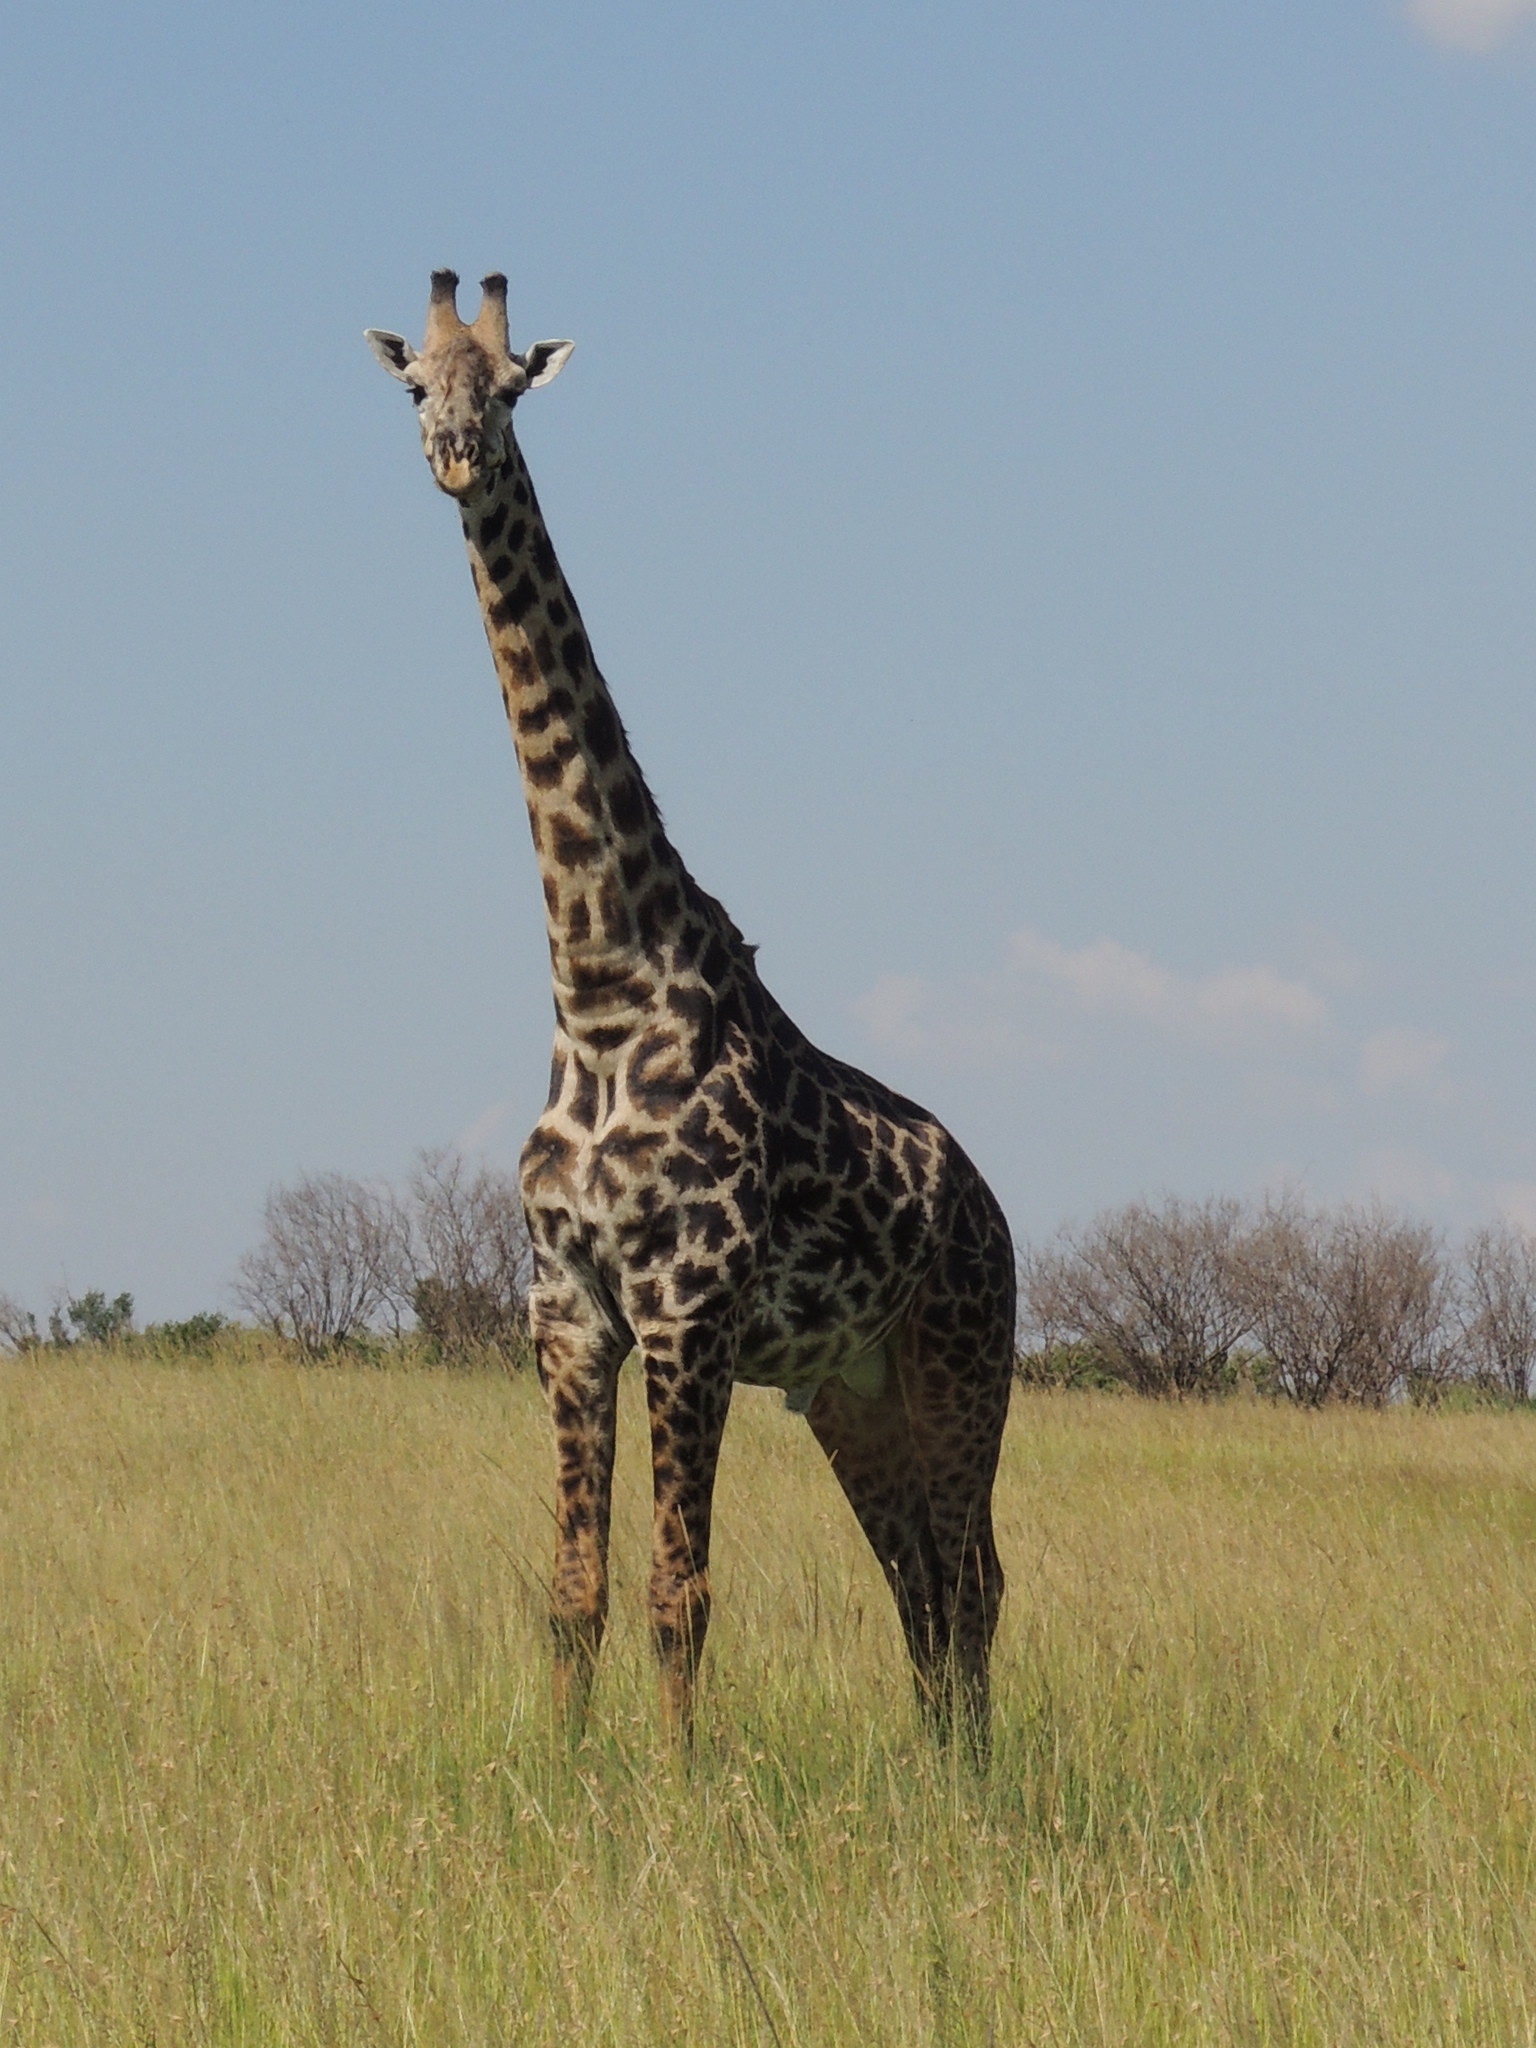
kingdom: Animalia
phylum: Chordata
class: Mammalia
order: Artiodactyla
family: Giraffidae
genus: Giraffa
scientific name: Giraffa tippelskirchi
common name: Masai giraffe
